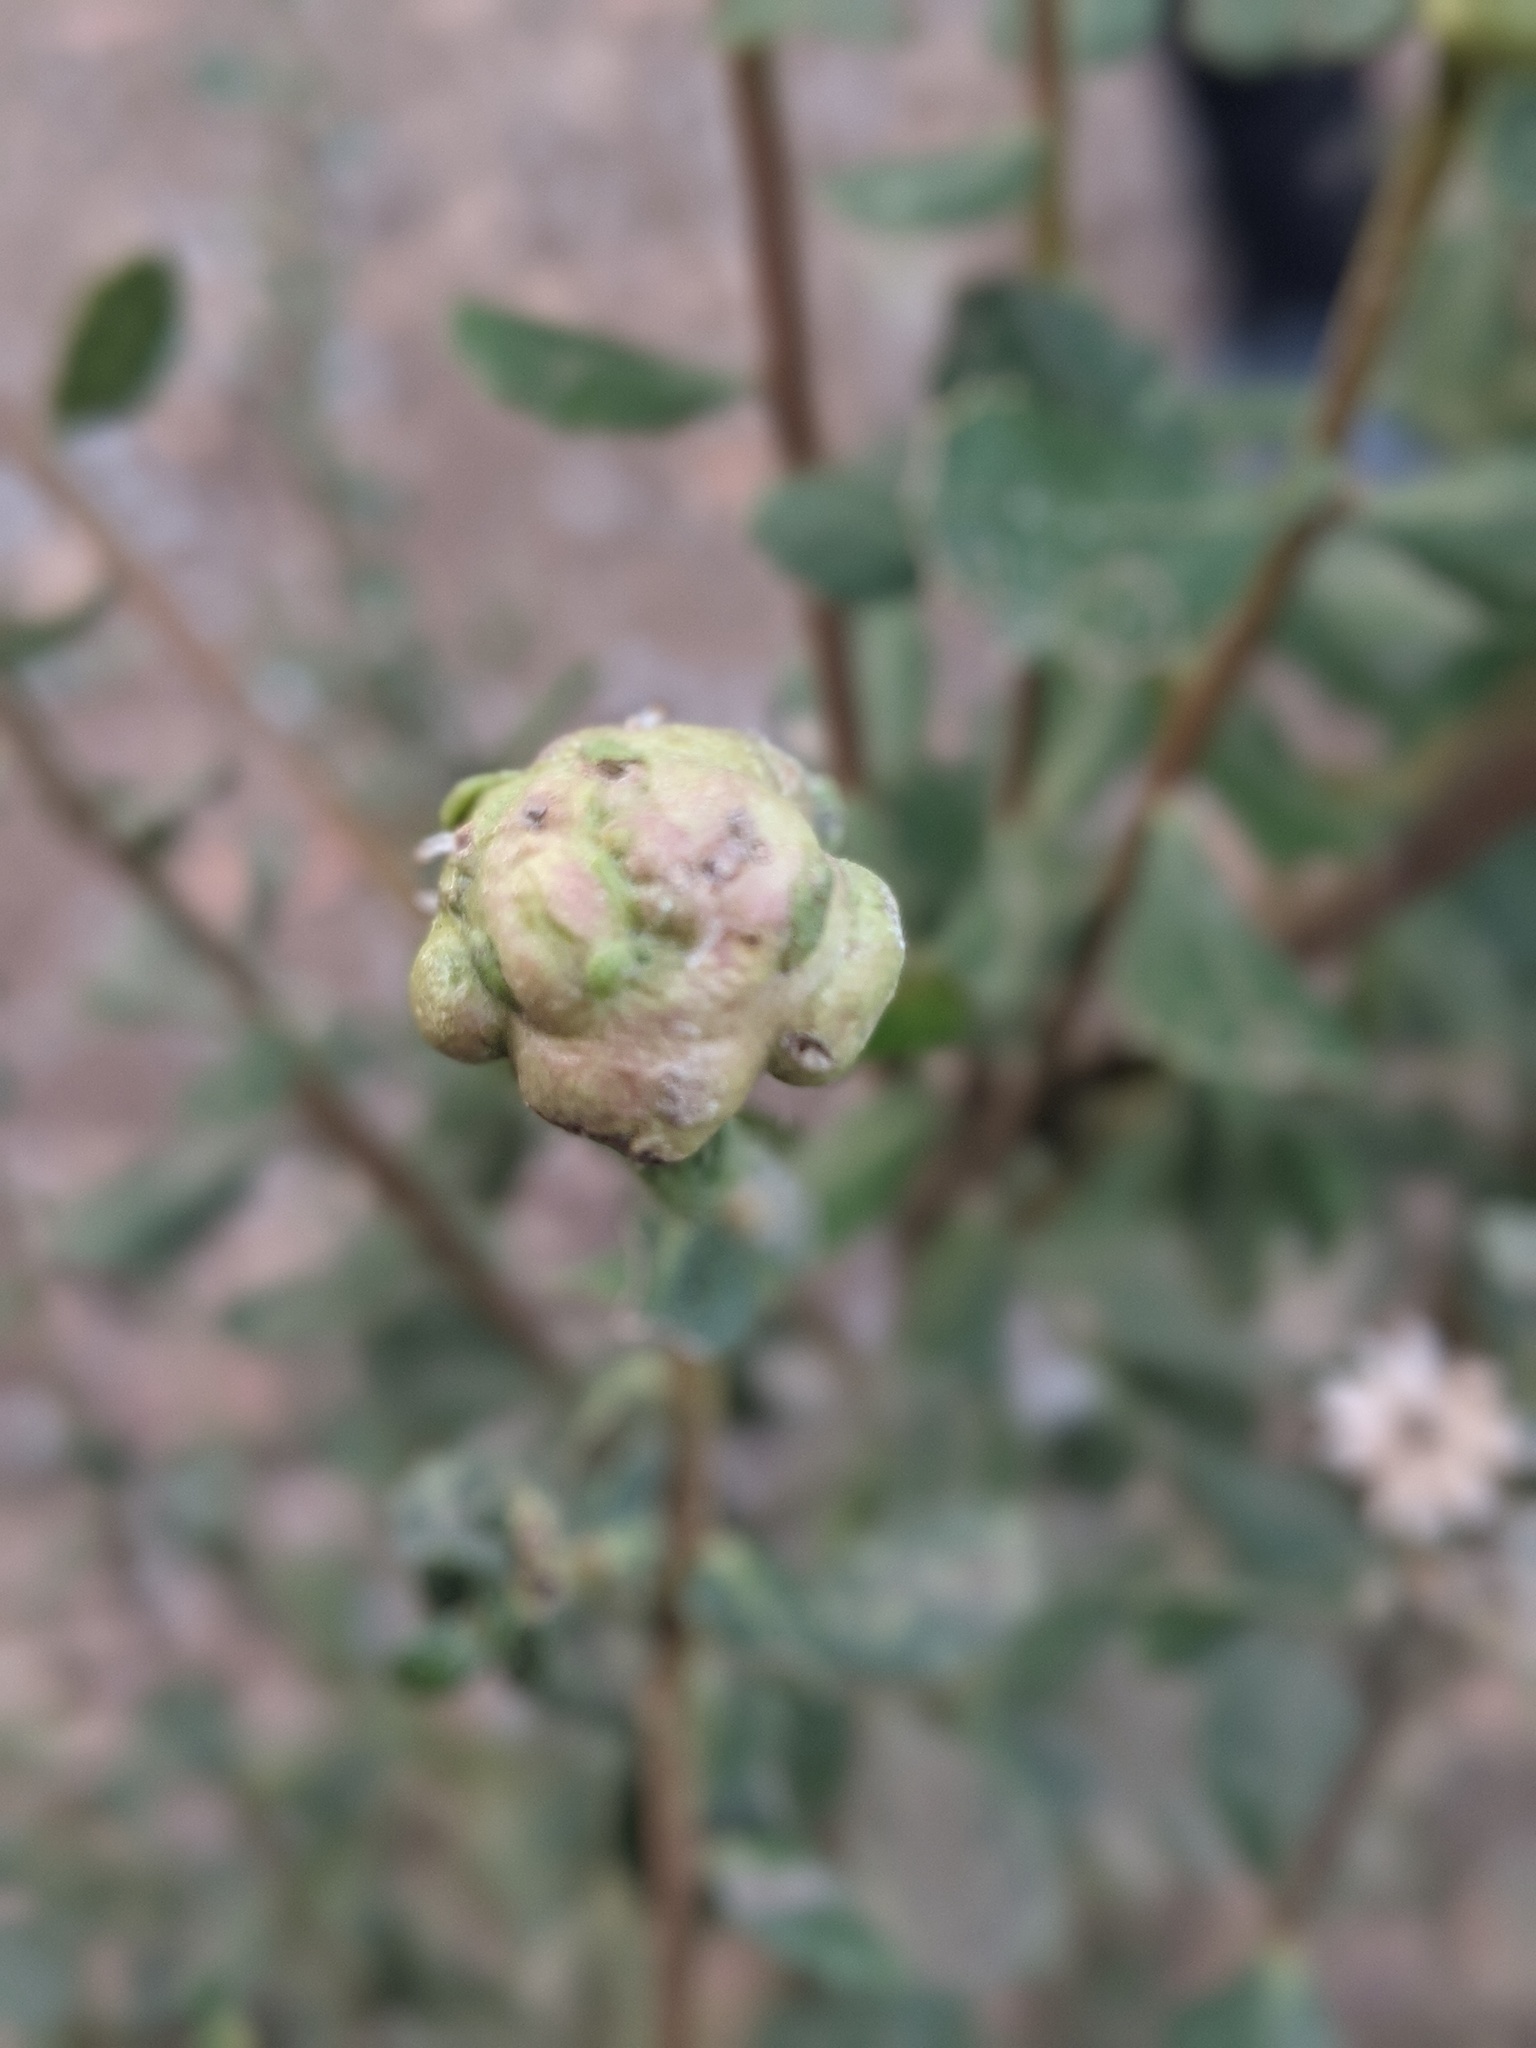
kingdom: Animalia
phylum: Arthropoda
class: Insecta
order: Diptera
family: Cecidomyiidae
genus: Rhopalomyia
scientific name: Rhopalomyia californica
